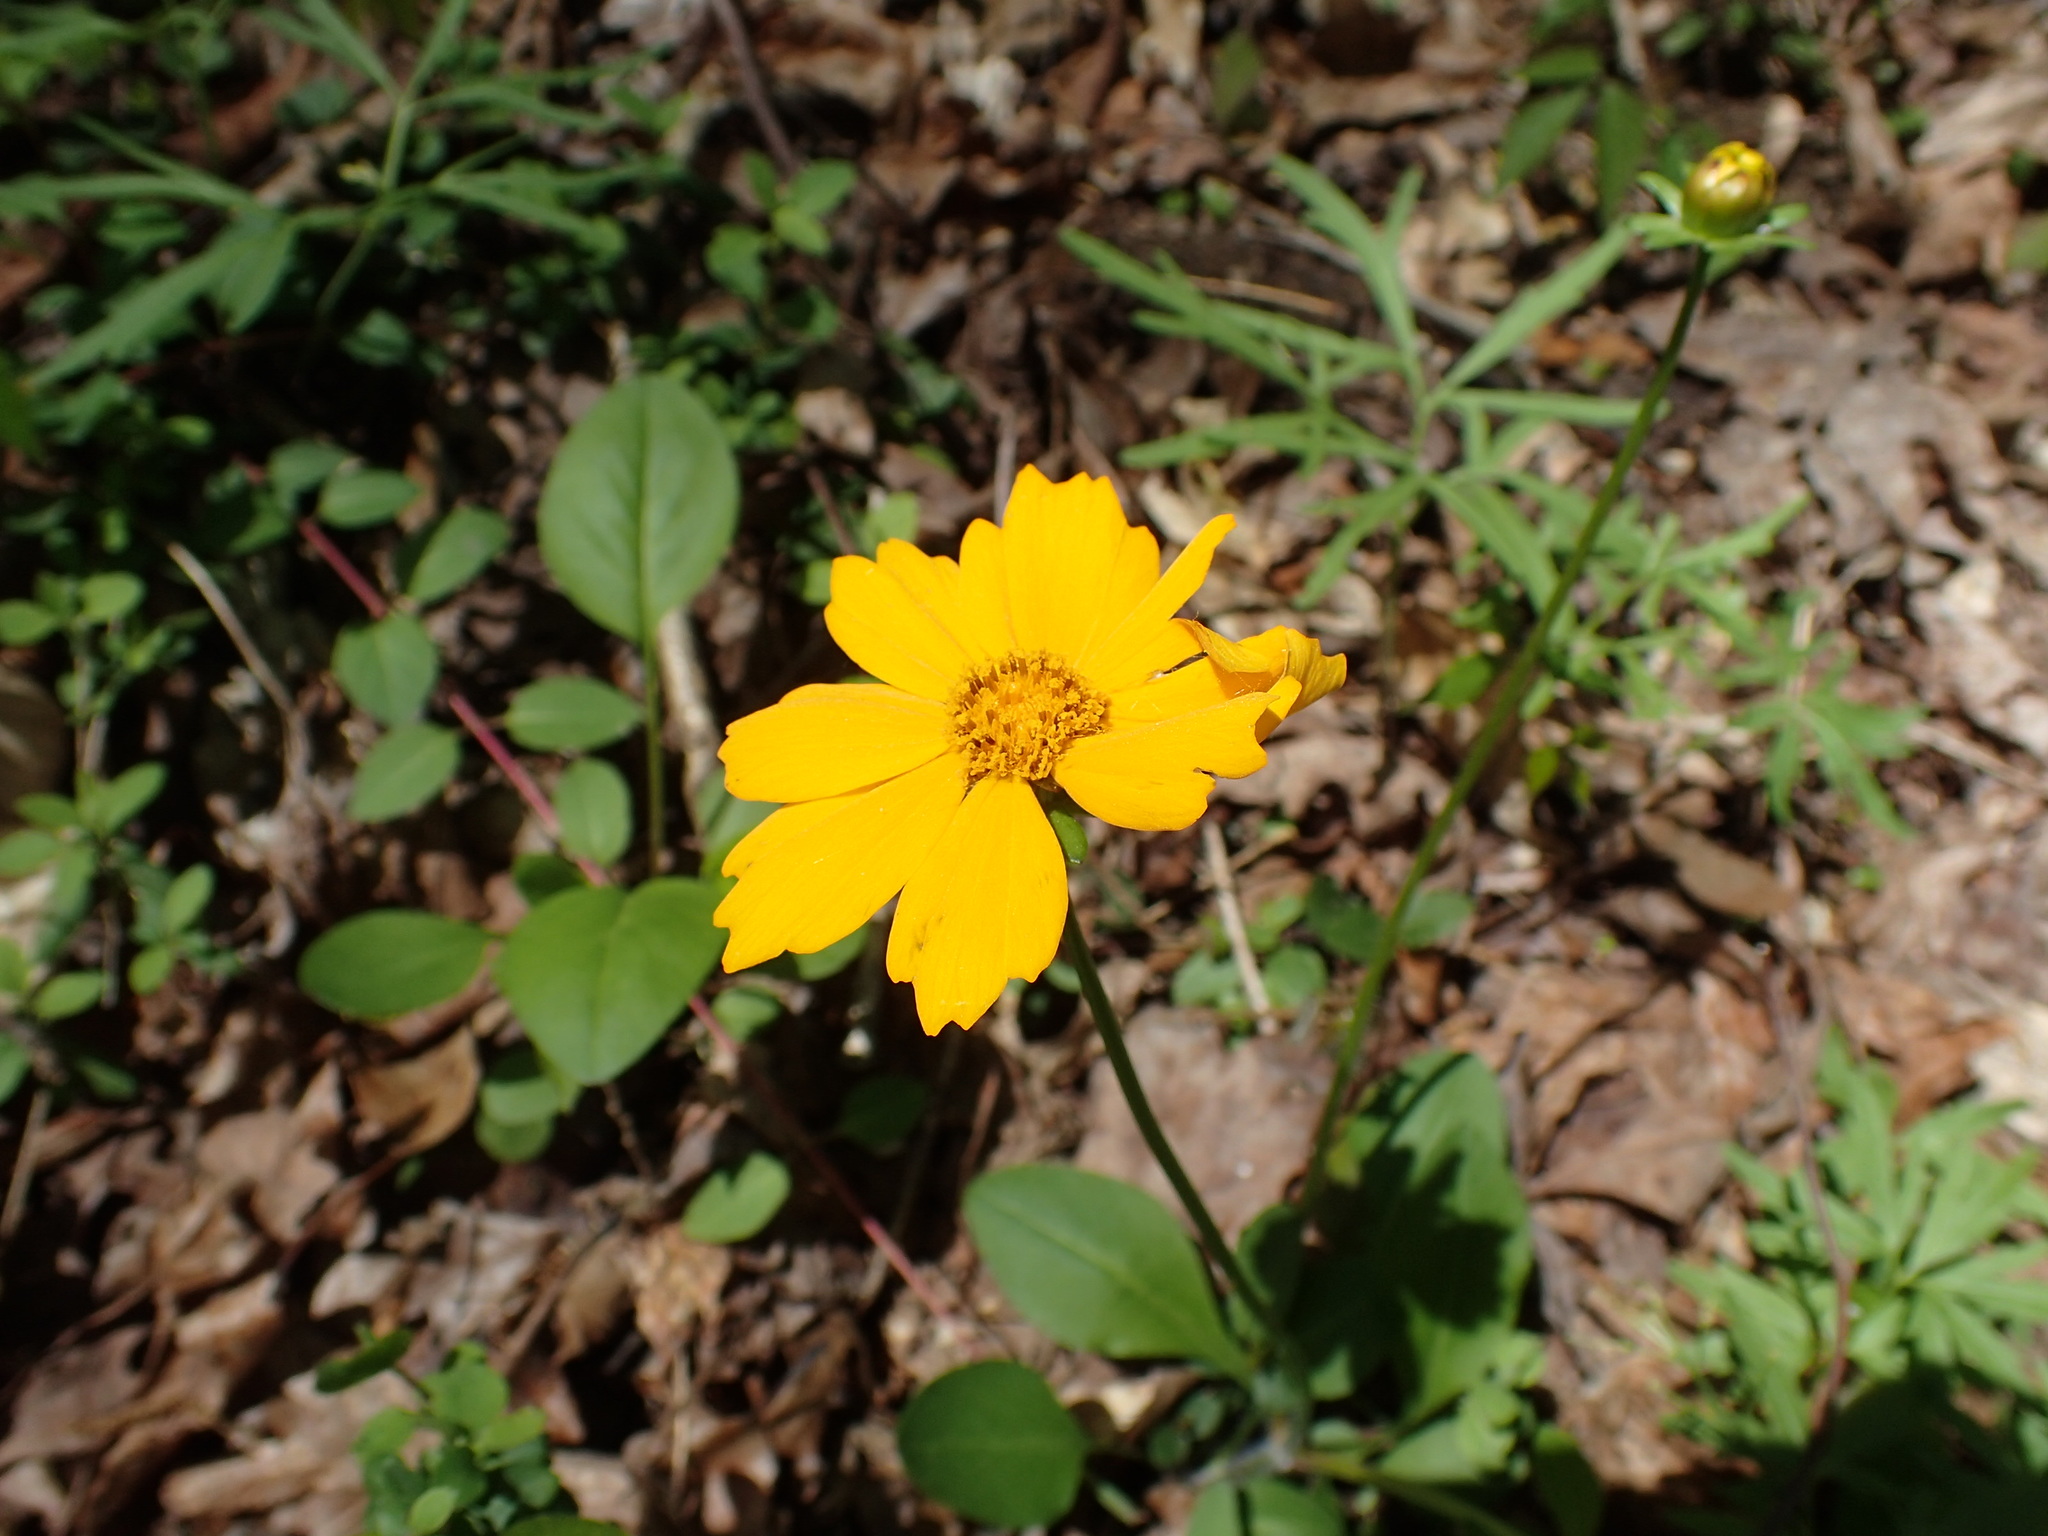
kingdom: Plantae
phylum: Tracheophyta
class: Magnoliopsida
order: Asterales
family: Asteraceae
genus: Coreopsis
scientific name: Coreopsis auriculata
